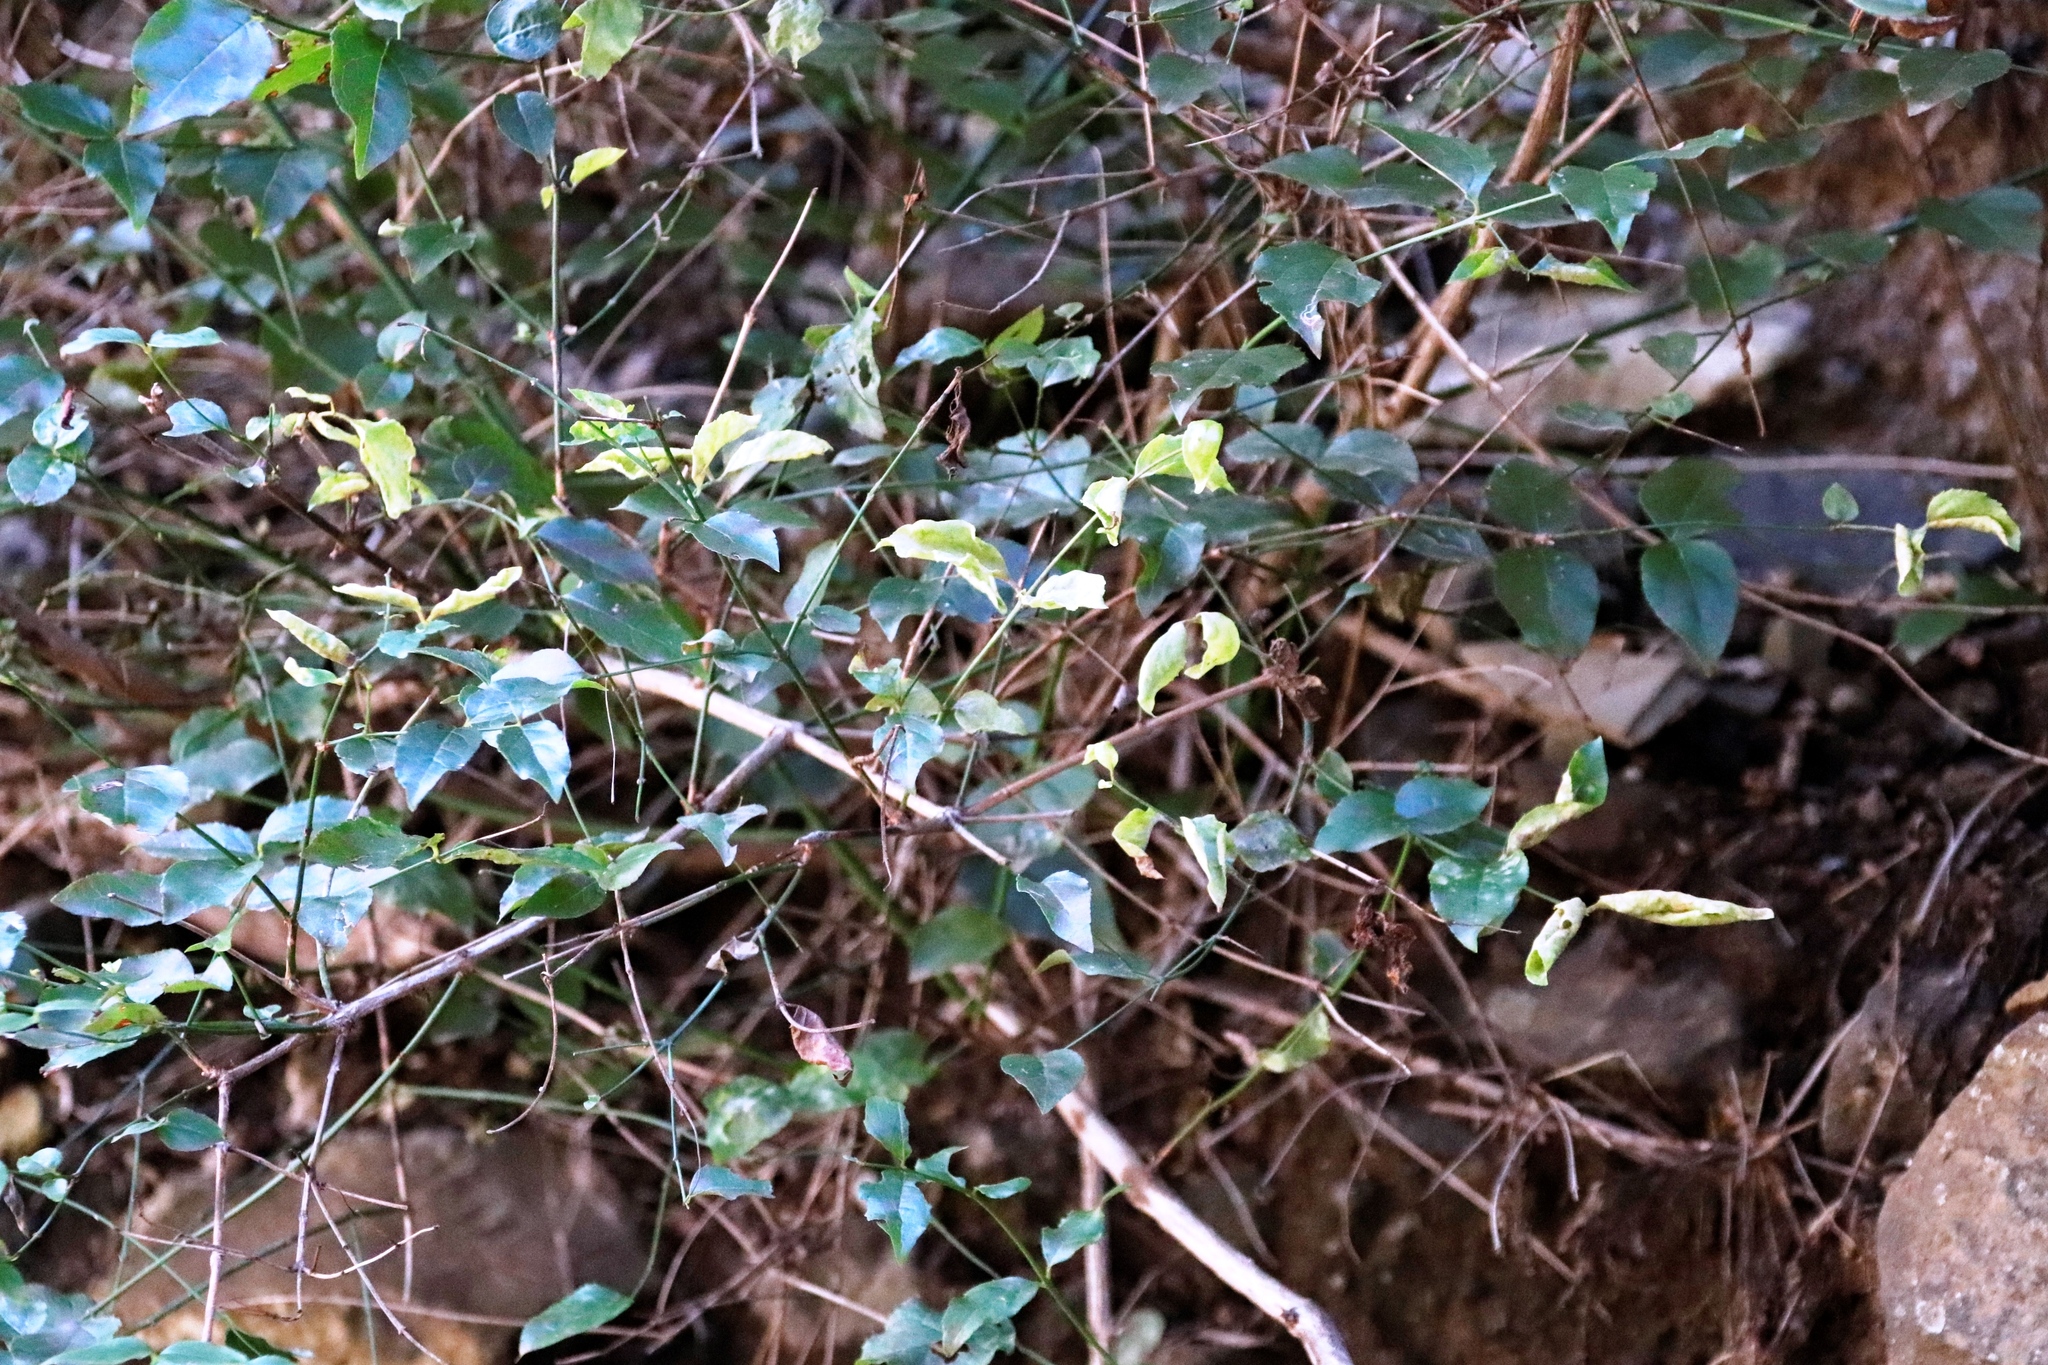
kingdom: Plantae
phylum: Tracheophyta
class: Magnoliopsida
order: Lamiales
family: Stilbaceae
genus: Halleria
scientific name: Halleria lucida
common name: Tree fuschia
